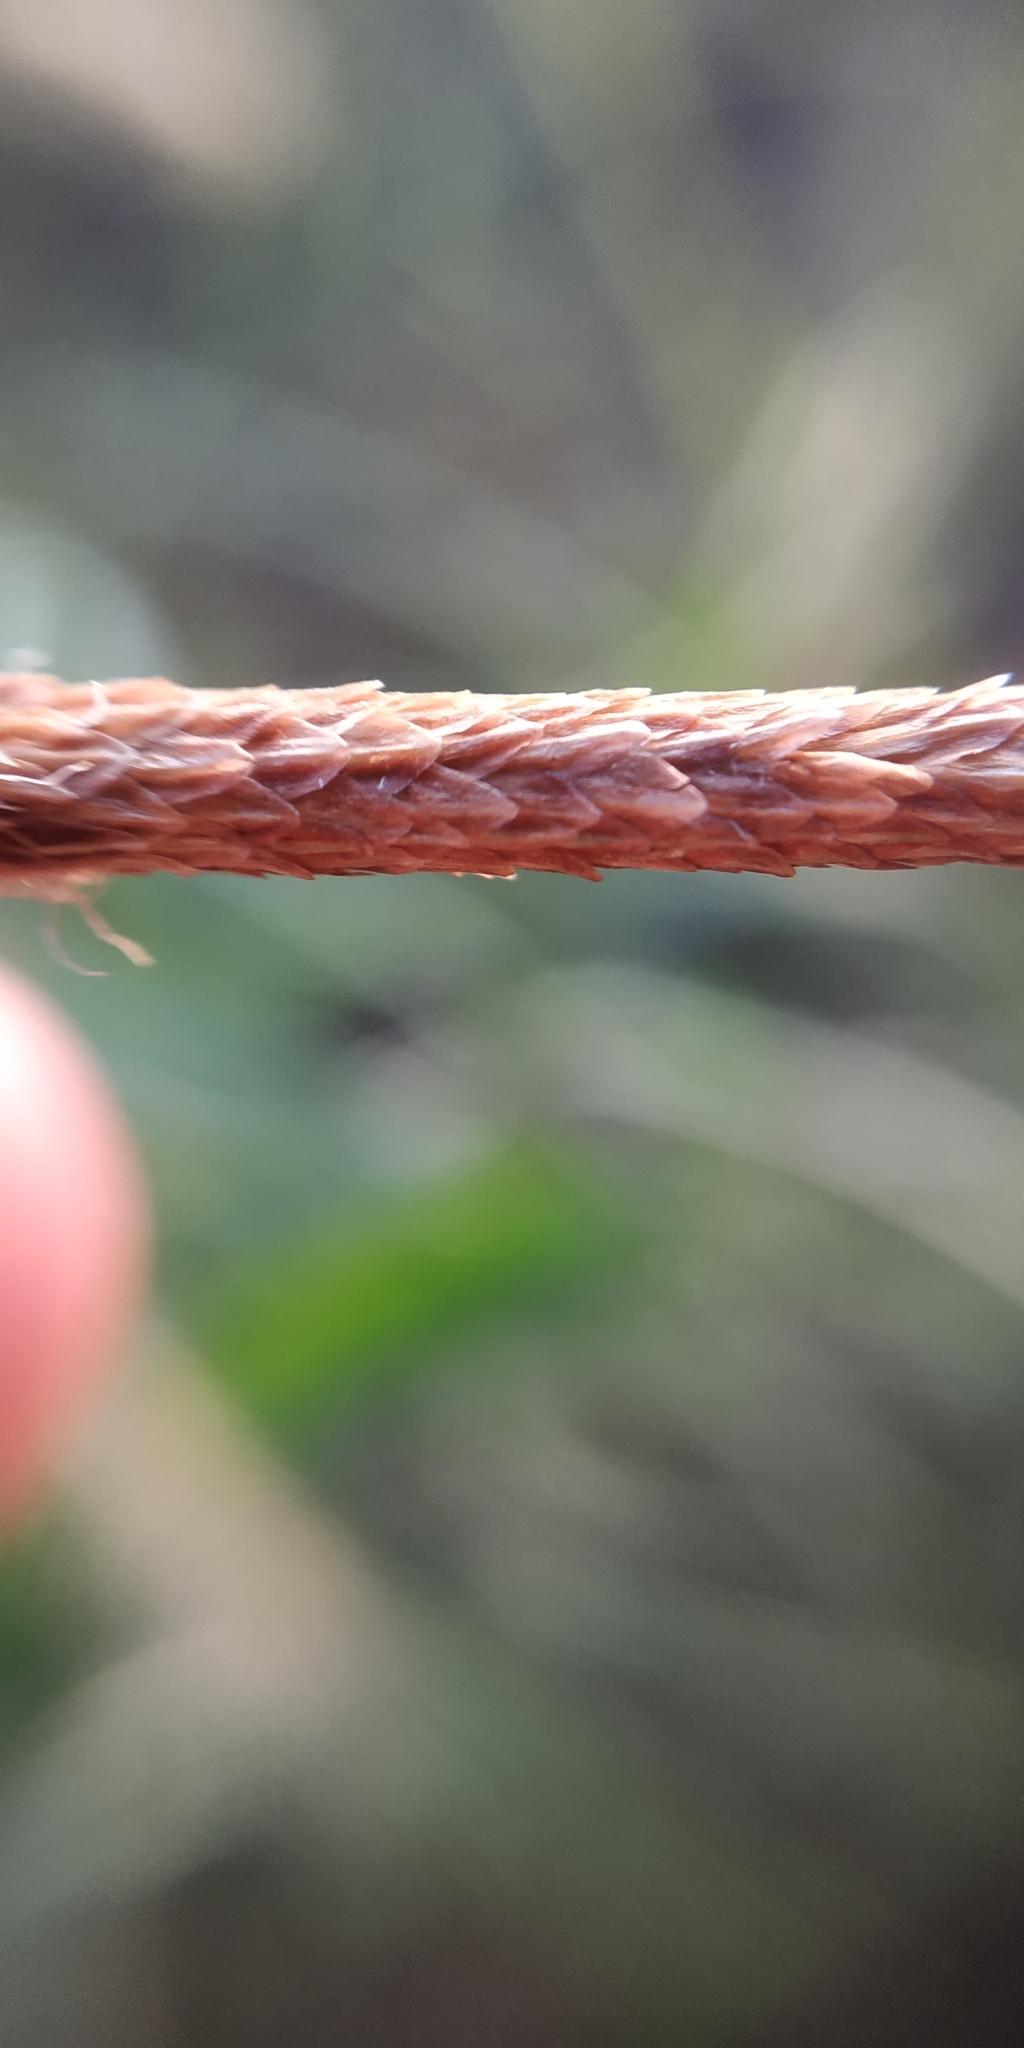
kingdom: Plantae
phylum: Tracheophyta
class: Liliopsida
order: Poales
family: Cyperaceae
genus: Carex
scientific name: Carex acuta
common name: Slender tufted-sedge
